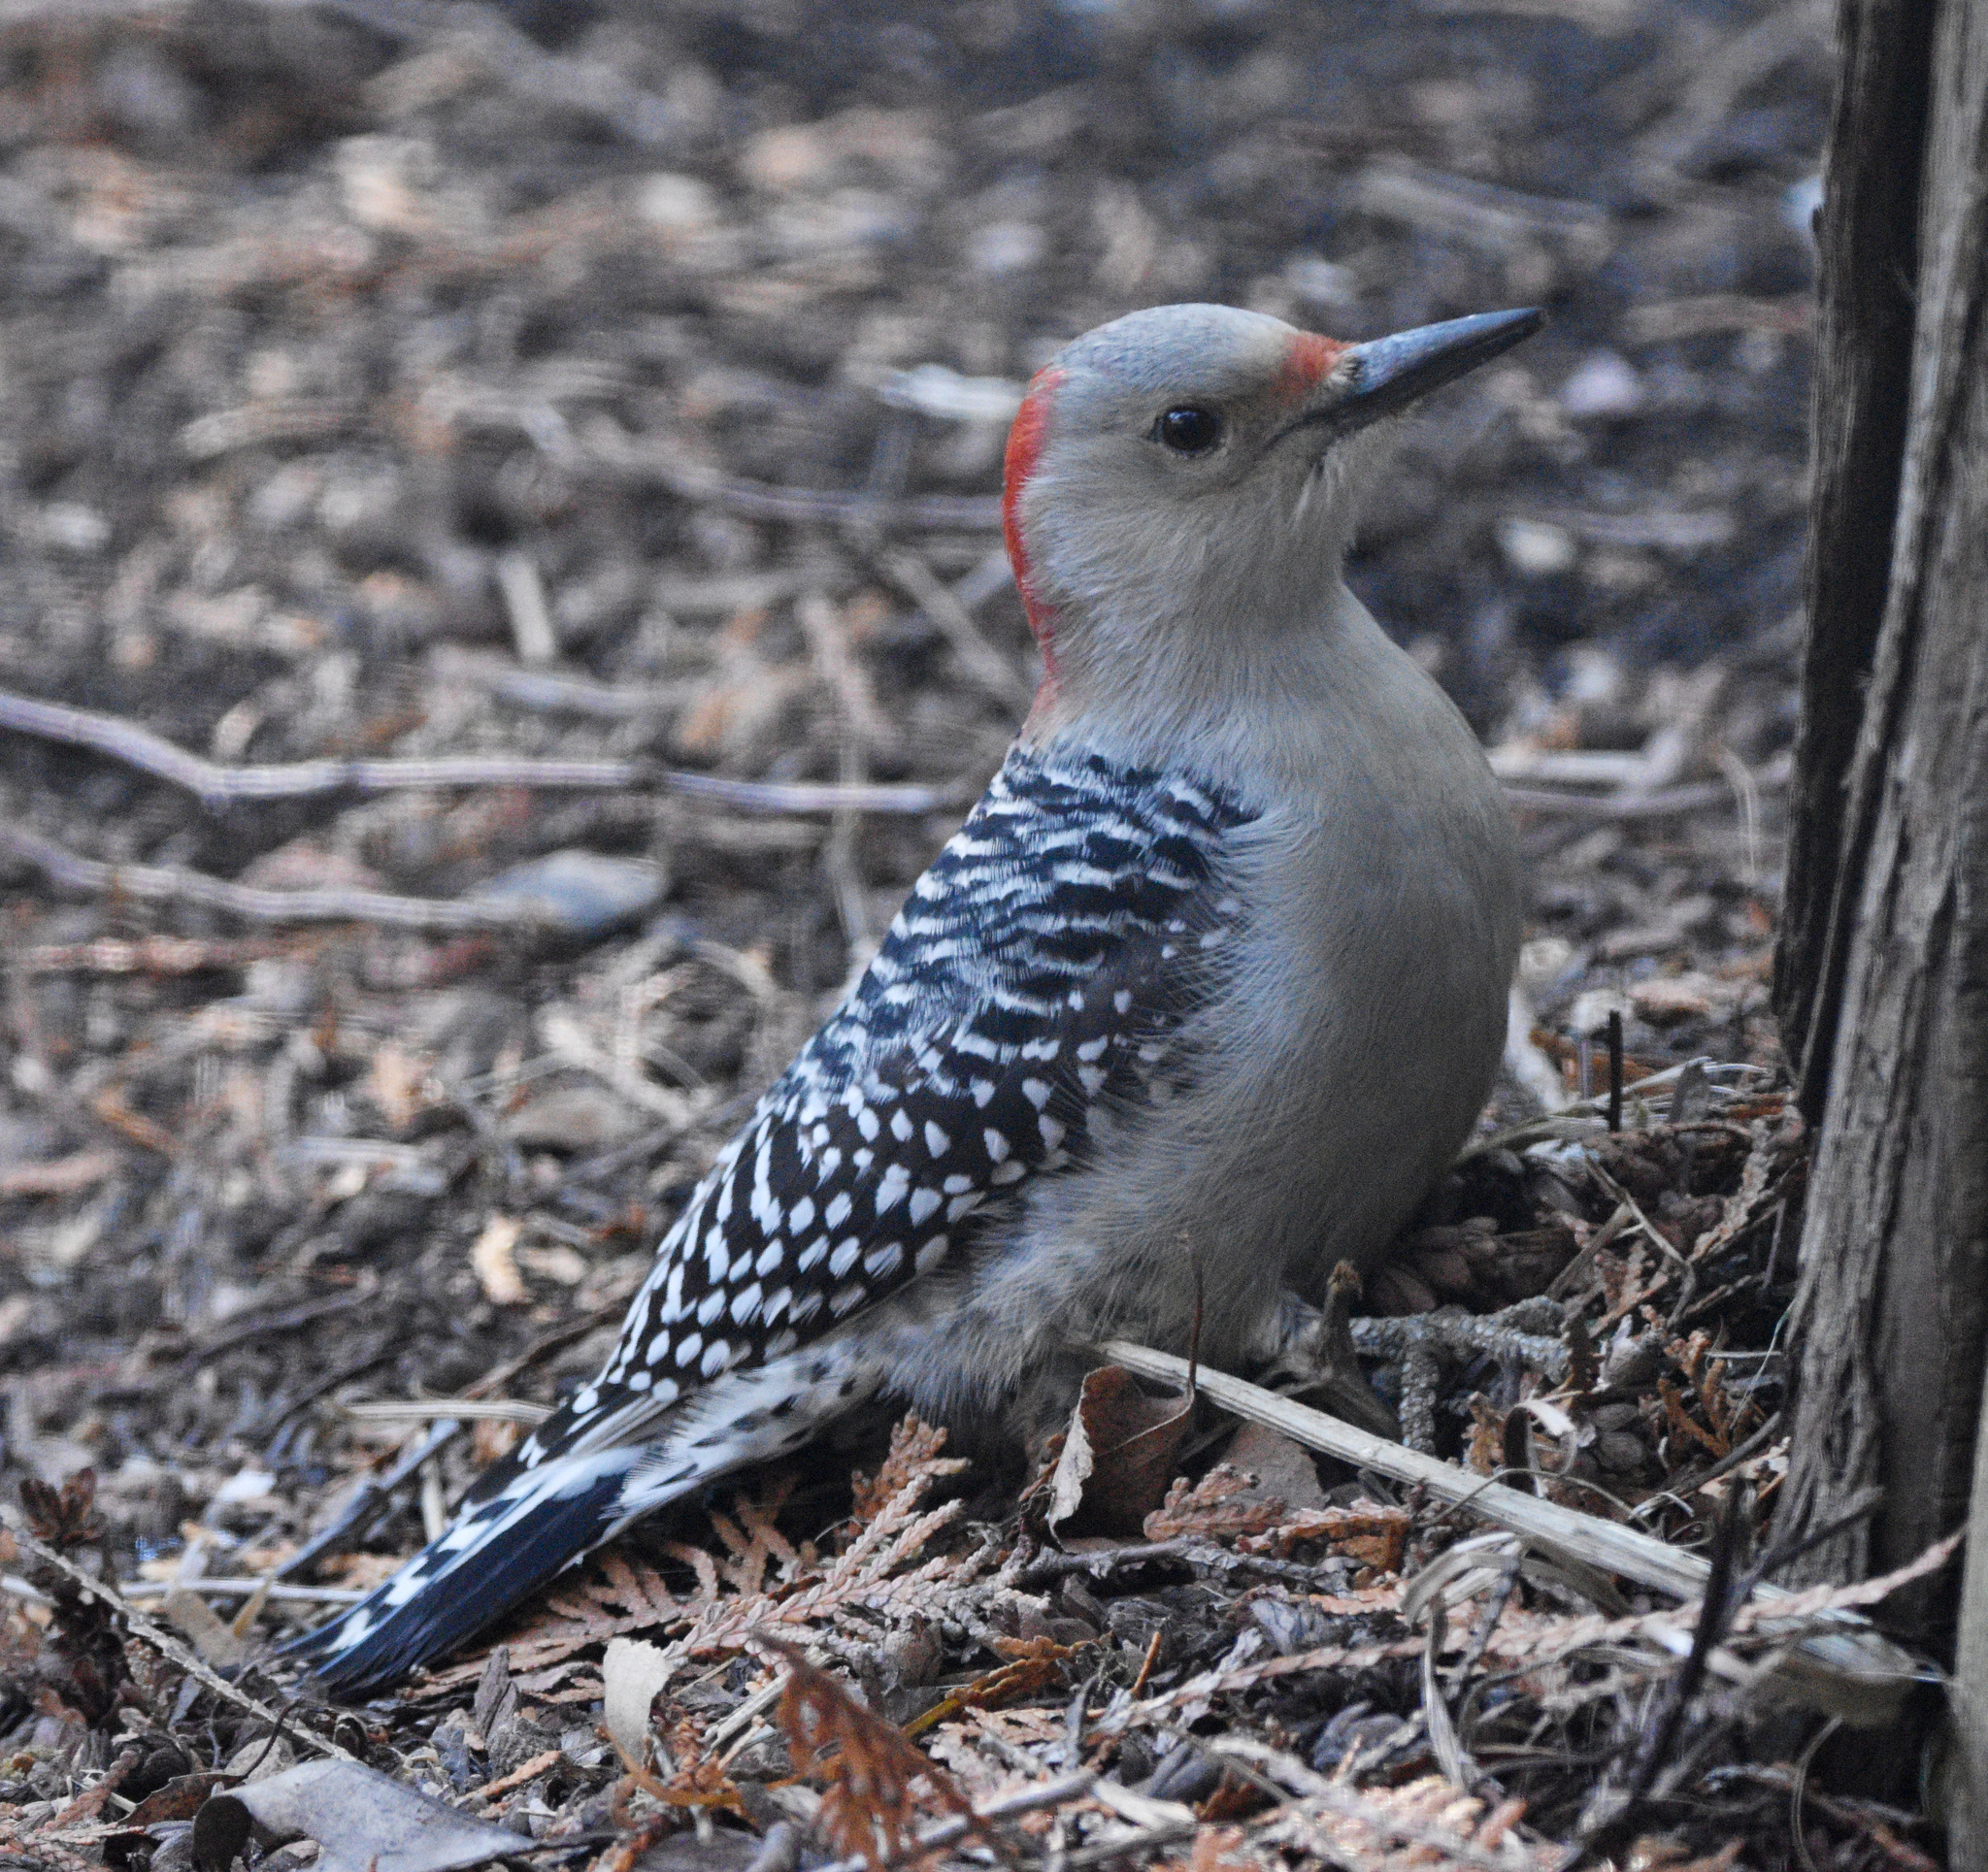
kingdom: Animalia
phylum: Chordata
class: Aves
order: Piciformes
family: Picidae
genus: Melanerpes
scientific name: Melanerpes carolinus
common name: Red-bellied woodpecker
